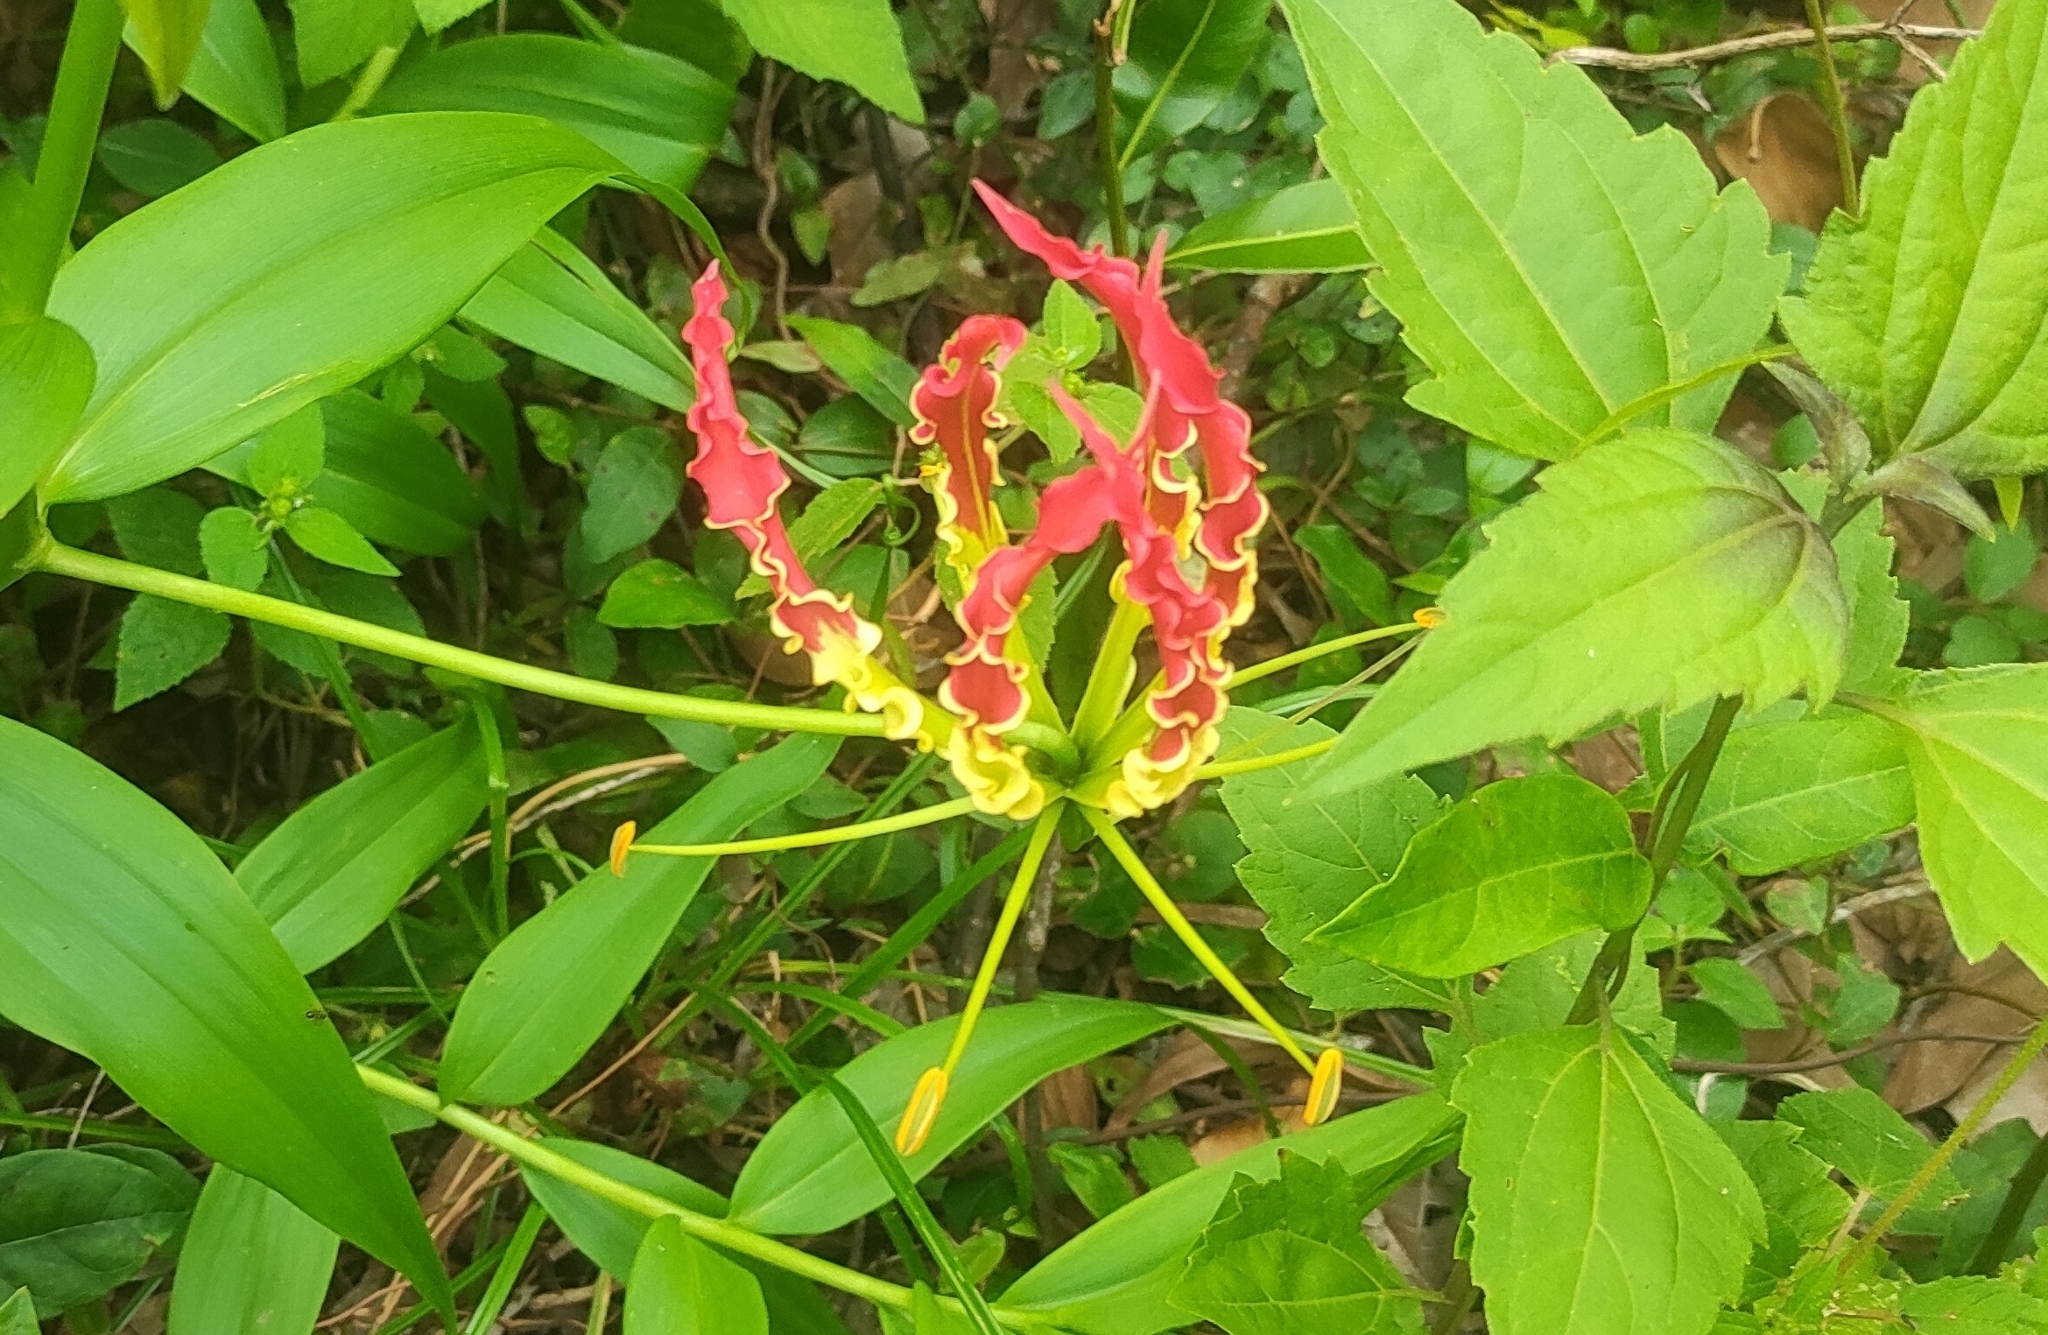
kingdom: Plantae
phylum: Tracheophyta
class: Liliopsida
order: Liliales
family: Colchicaceae
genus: Gloriosa
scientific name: Gloriosa superba
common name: Flame lily
